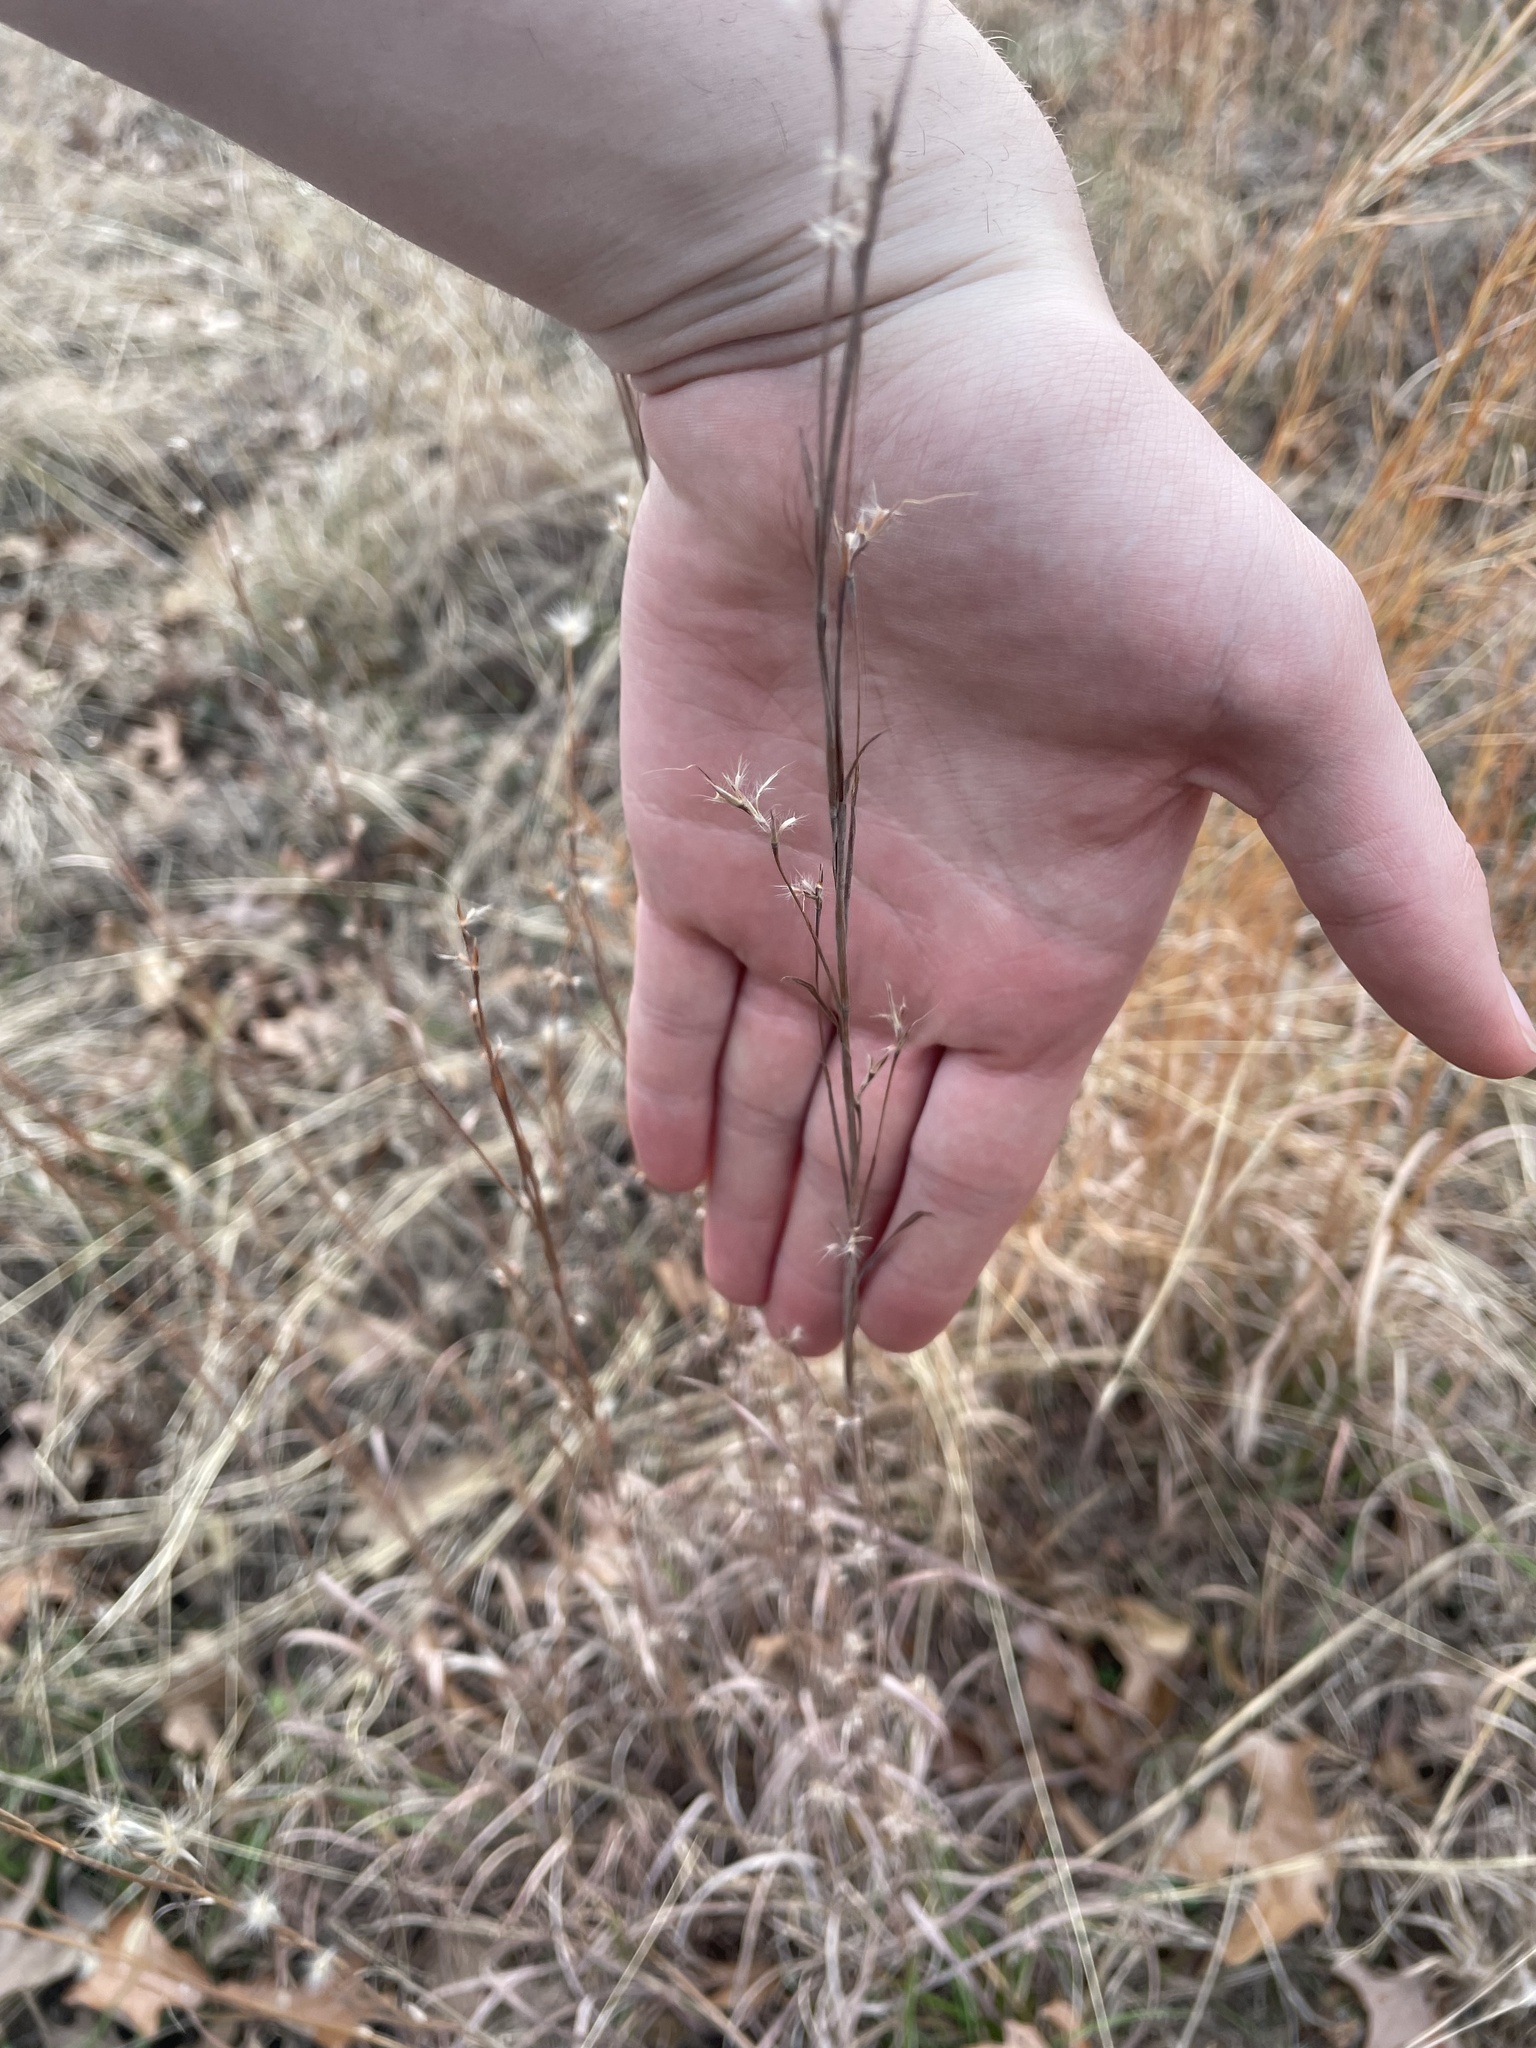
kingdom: Plantae
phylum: Tracheophyta
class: Liliopsida
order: Poales
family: Poaceae
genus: Schizachyrium
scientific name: Schizachyrium scoparium
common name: Little bluestem
